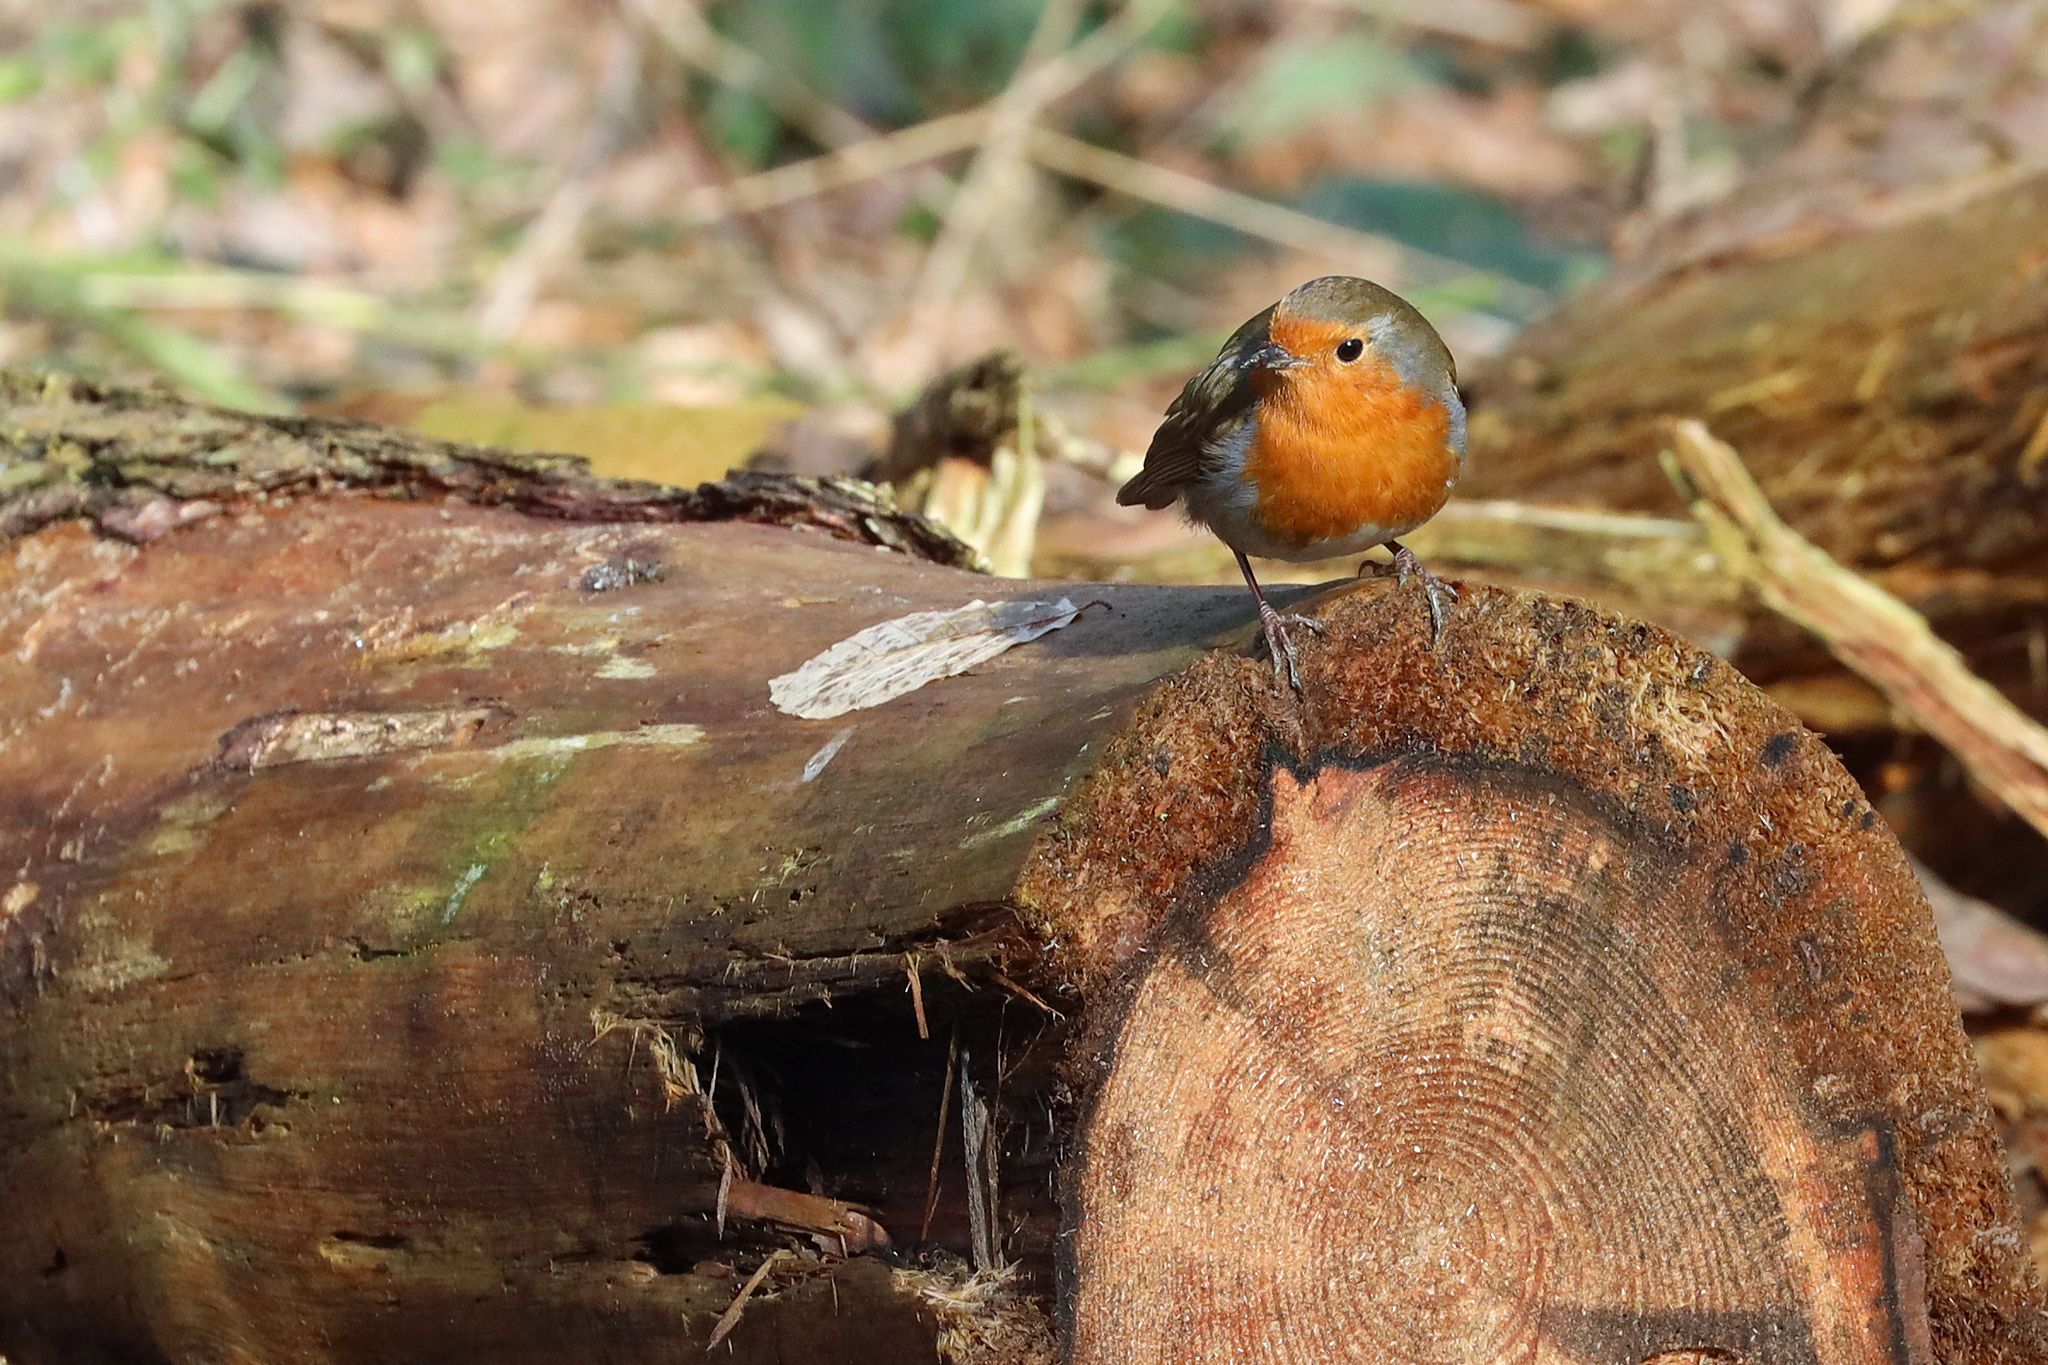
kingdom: Animalia
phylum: Chordata
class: Aves
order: Passeriformes
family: Muscicapidae
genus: Erithacus
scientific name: Erithacus rubecula
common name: European robin
